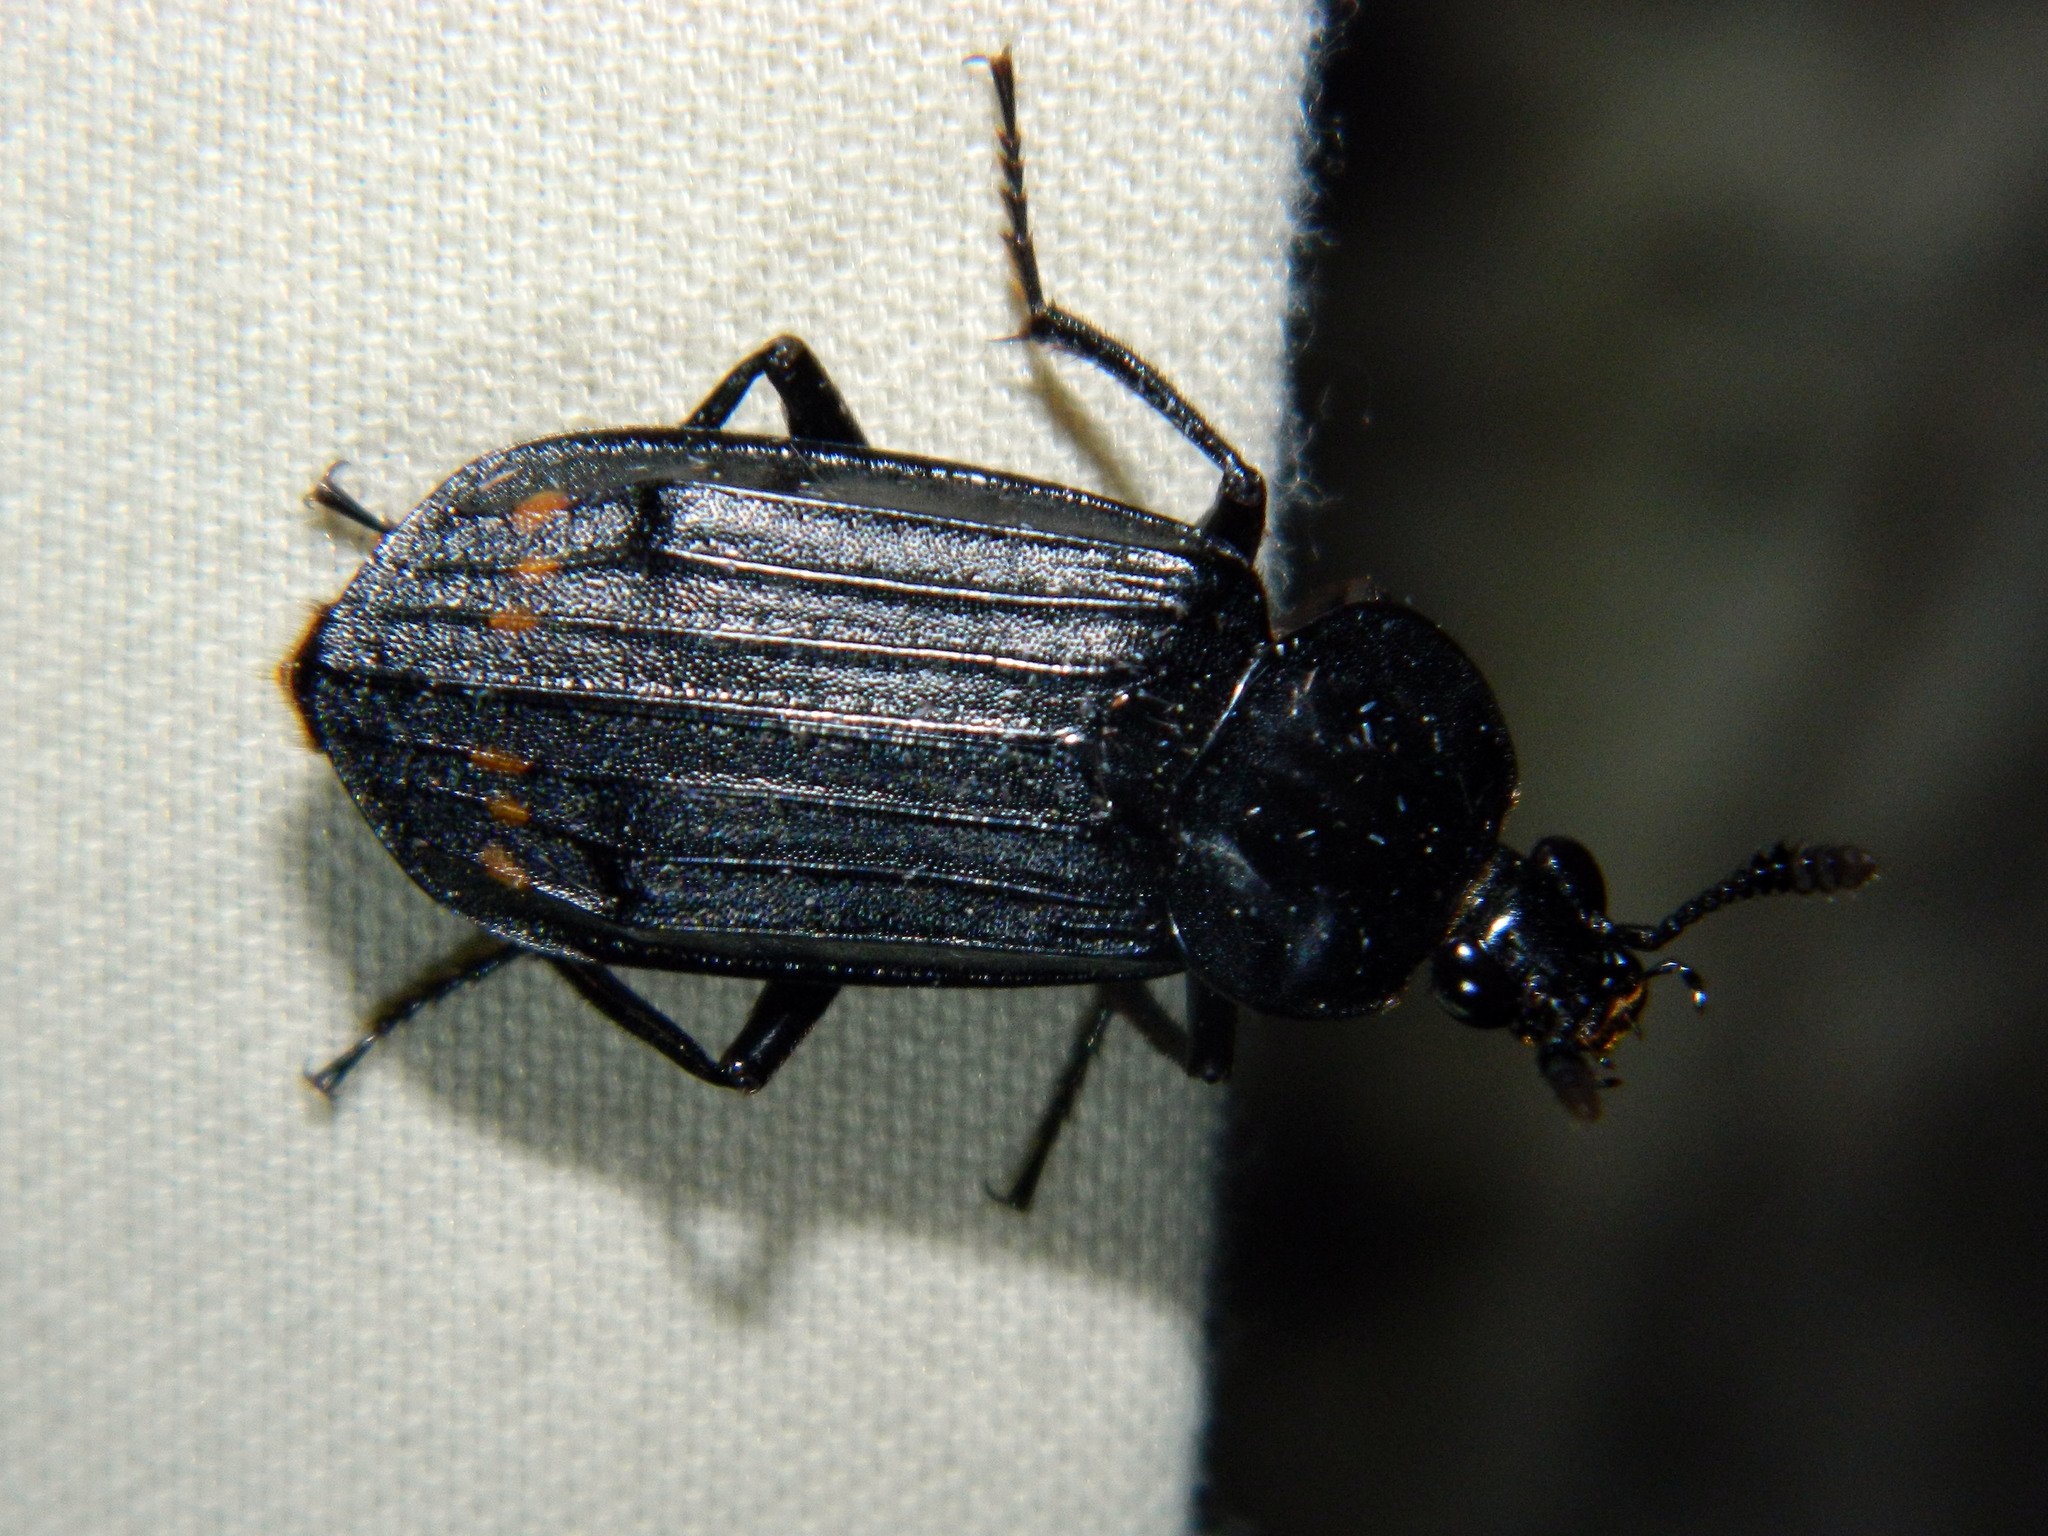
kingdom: Animalia
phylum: Arthropoda
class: Insecta
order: Coleoptera
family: Staphylinidae
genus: Necrodes
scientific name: Necrodes surinamensis
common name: Red-lined carrion beetle
